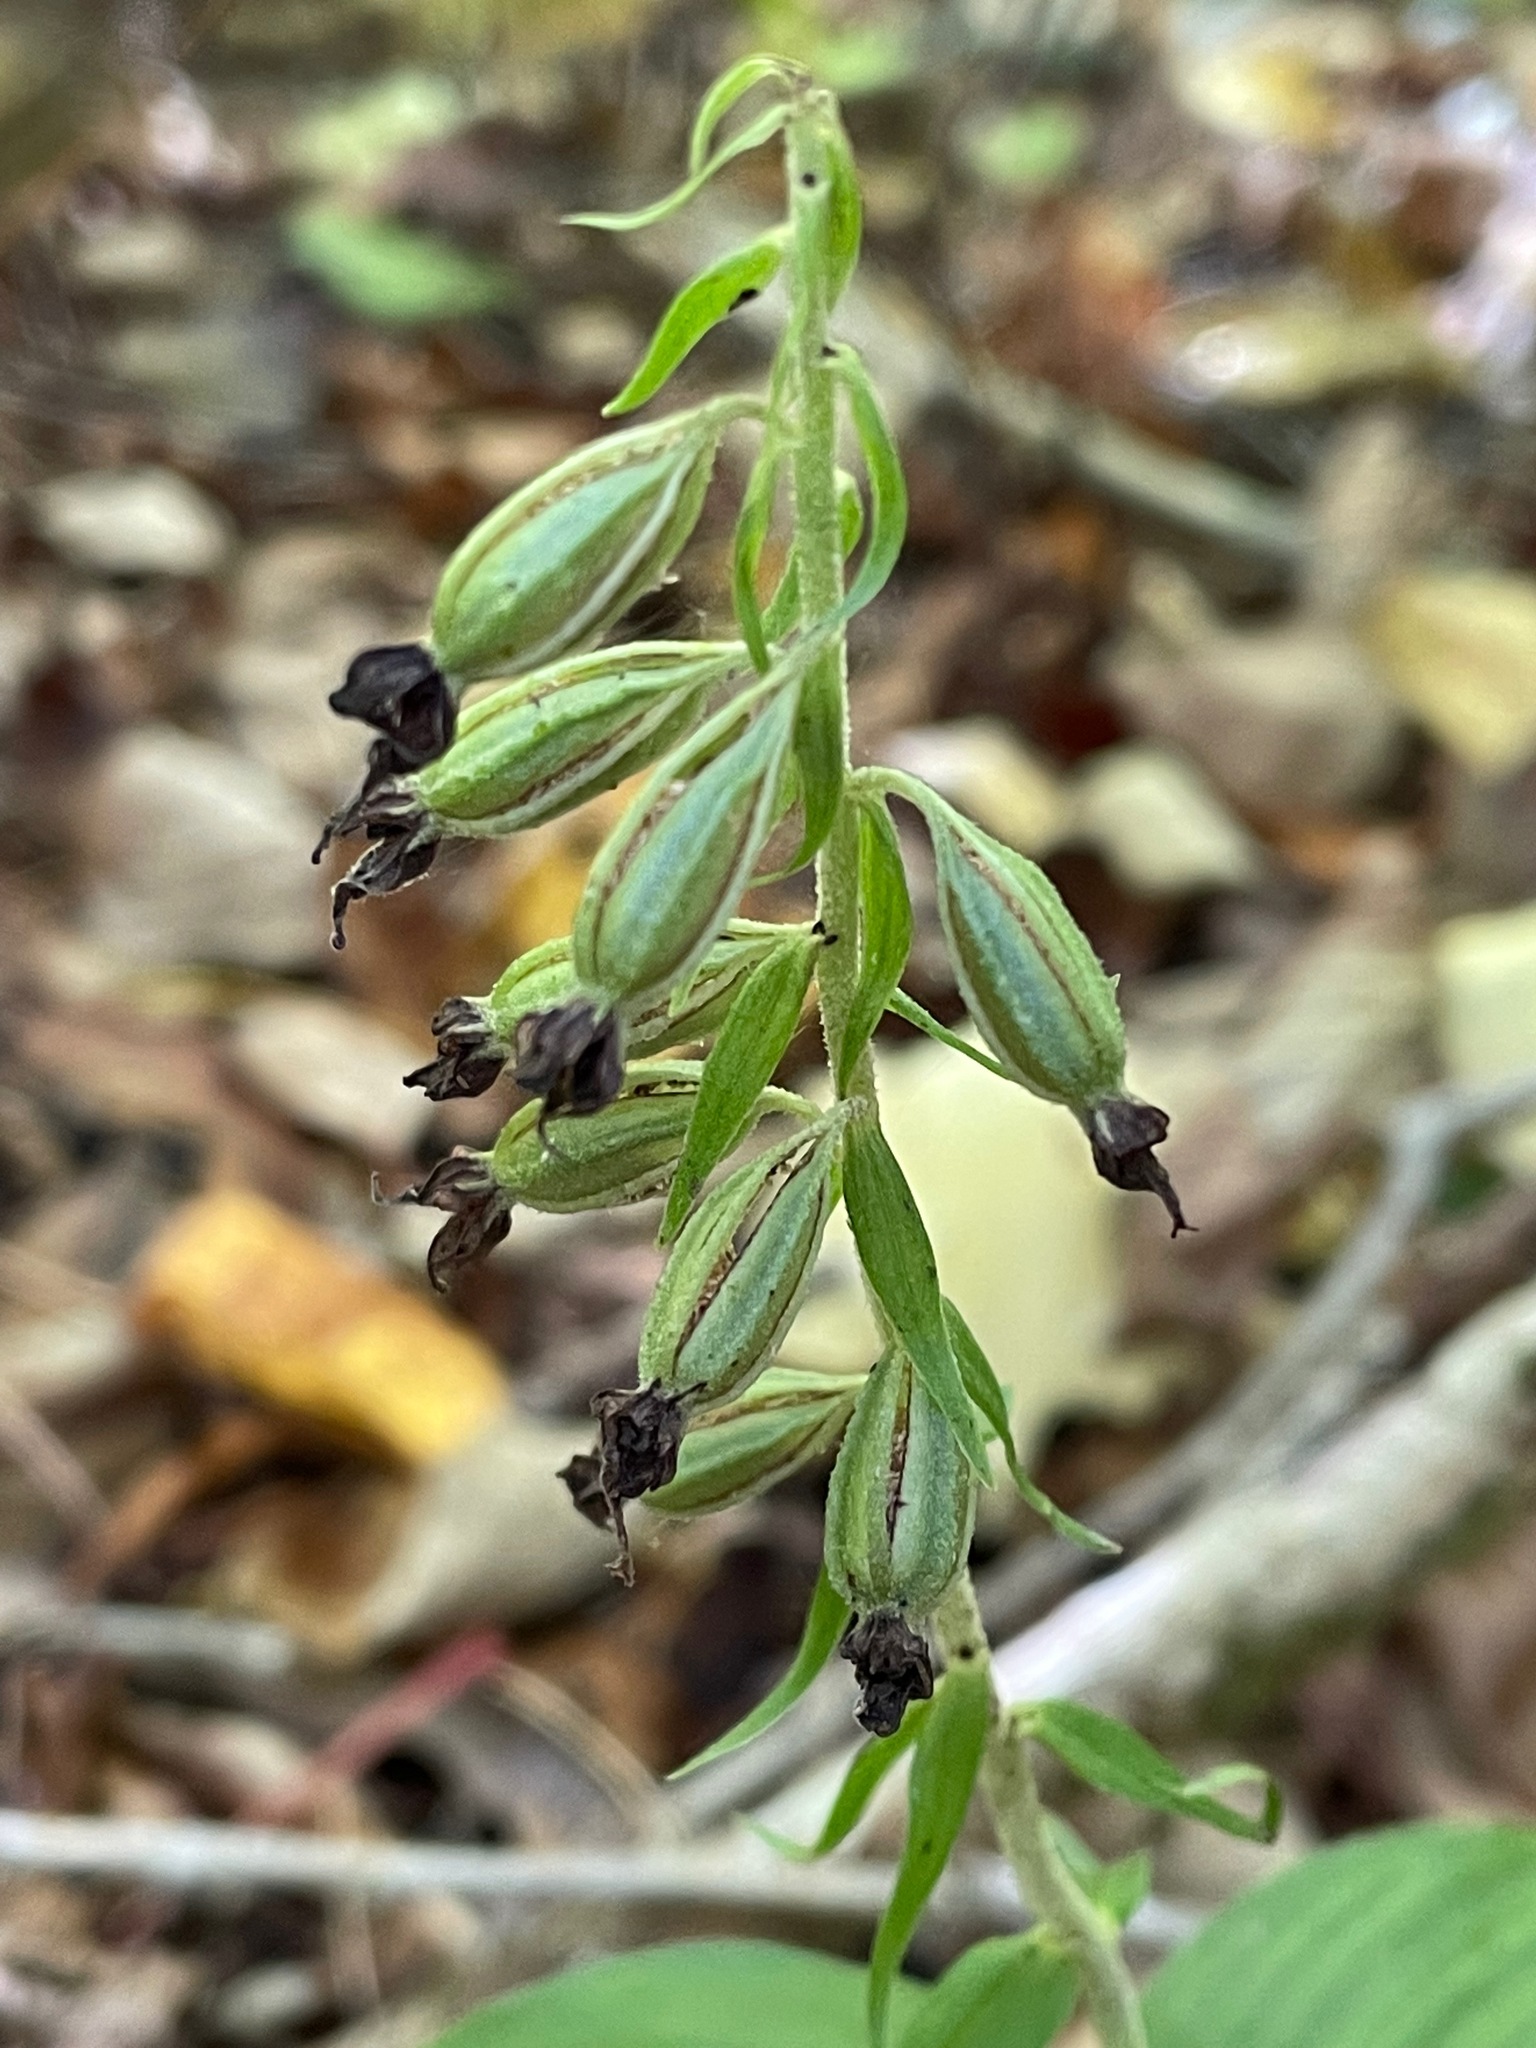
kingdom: Plantae
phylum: Tracheophyta
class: Liliopsida
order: Asparagales
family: Orchidaceae
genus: Epipactis
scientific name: Epipactis helleborine
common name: Broad-leaved helleborine
